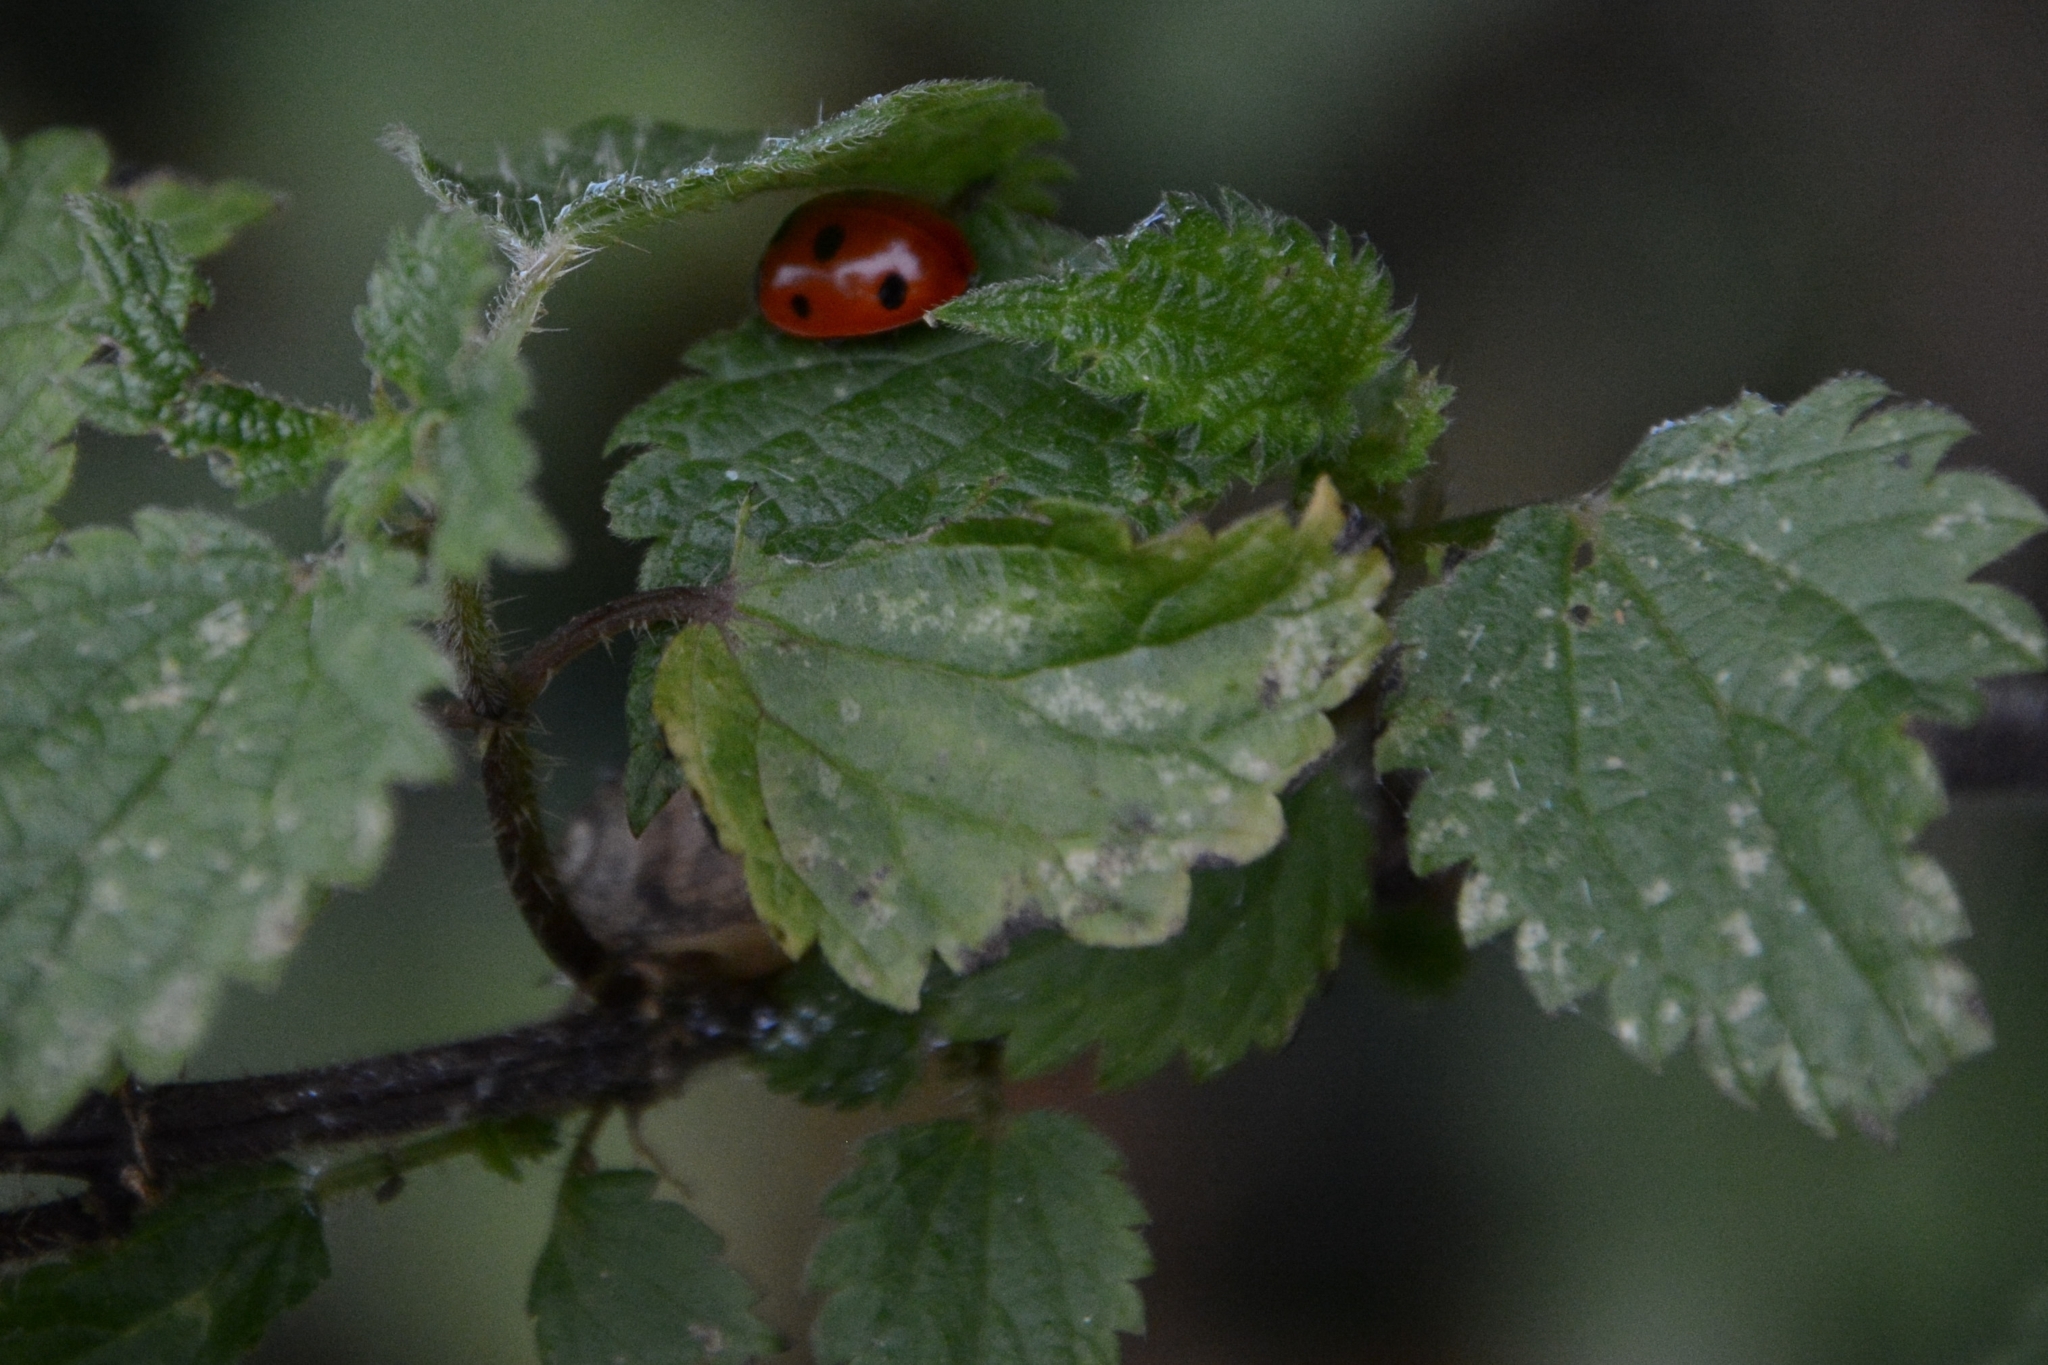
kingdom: Animalia
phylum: Arthropoda
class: Insecta
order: Coleoptera
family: Coccinellidae
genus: Coccinella
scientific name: Coccinella septempunctata
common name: Sevenspotted lady beetle
